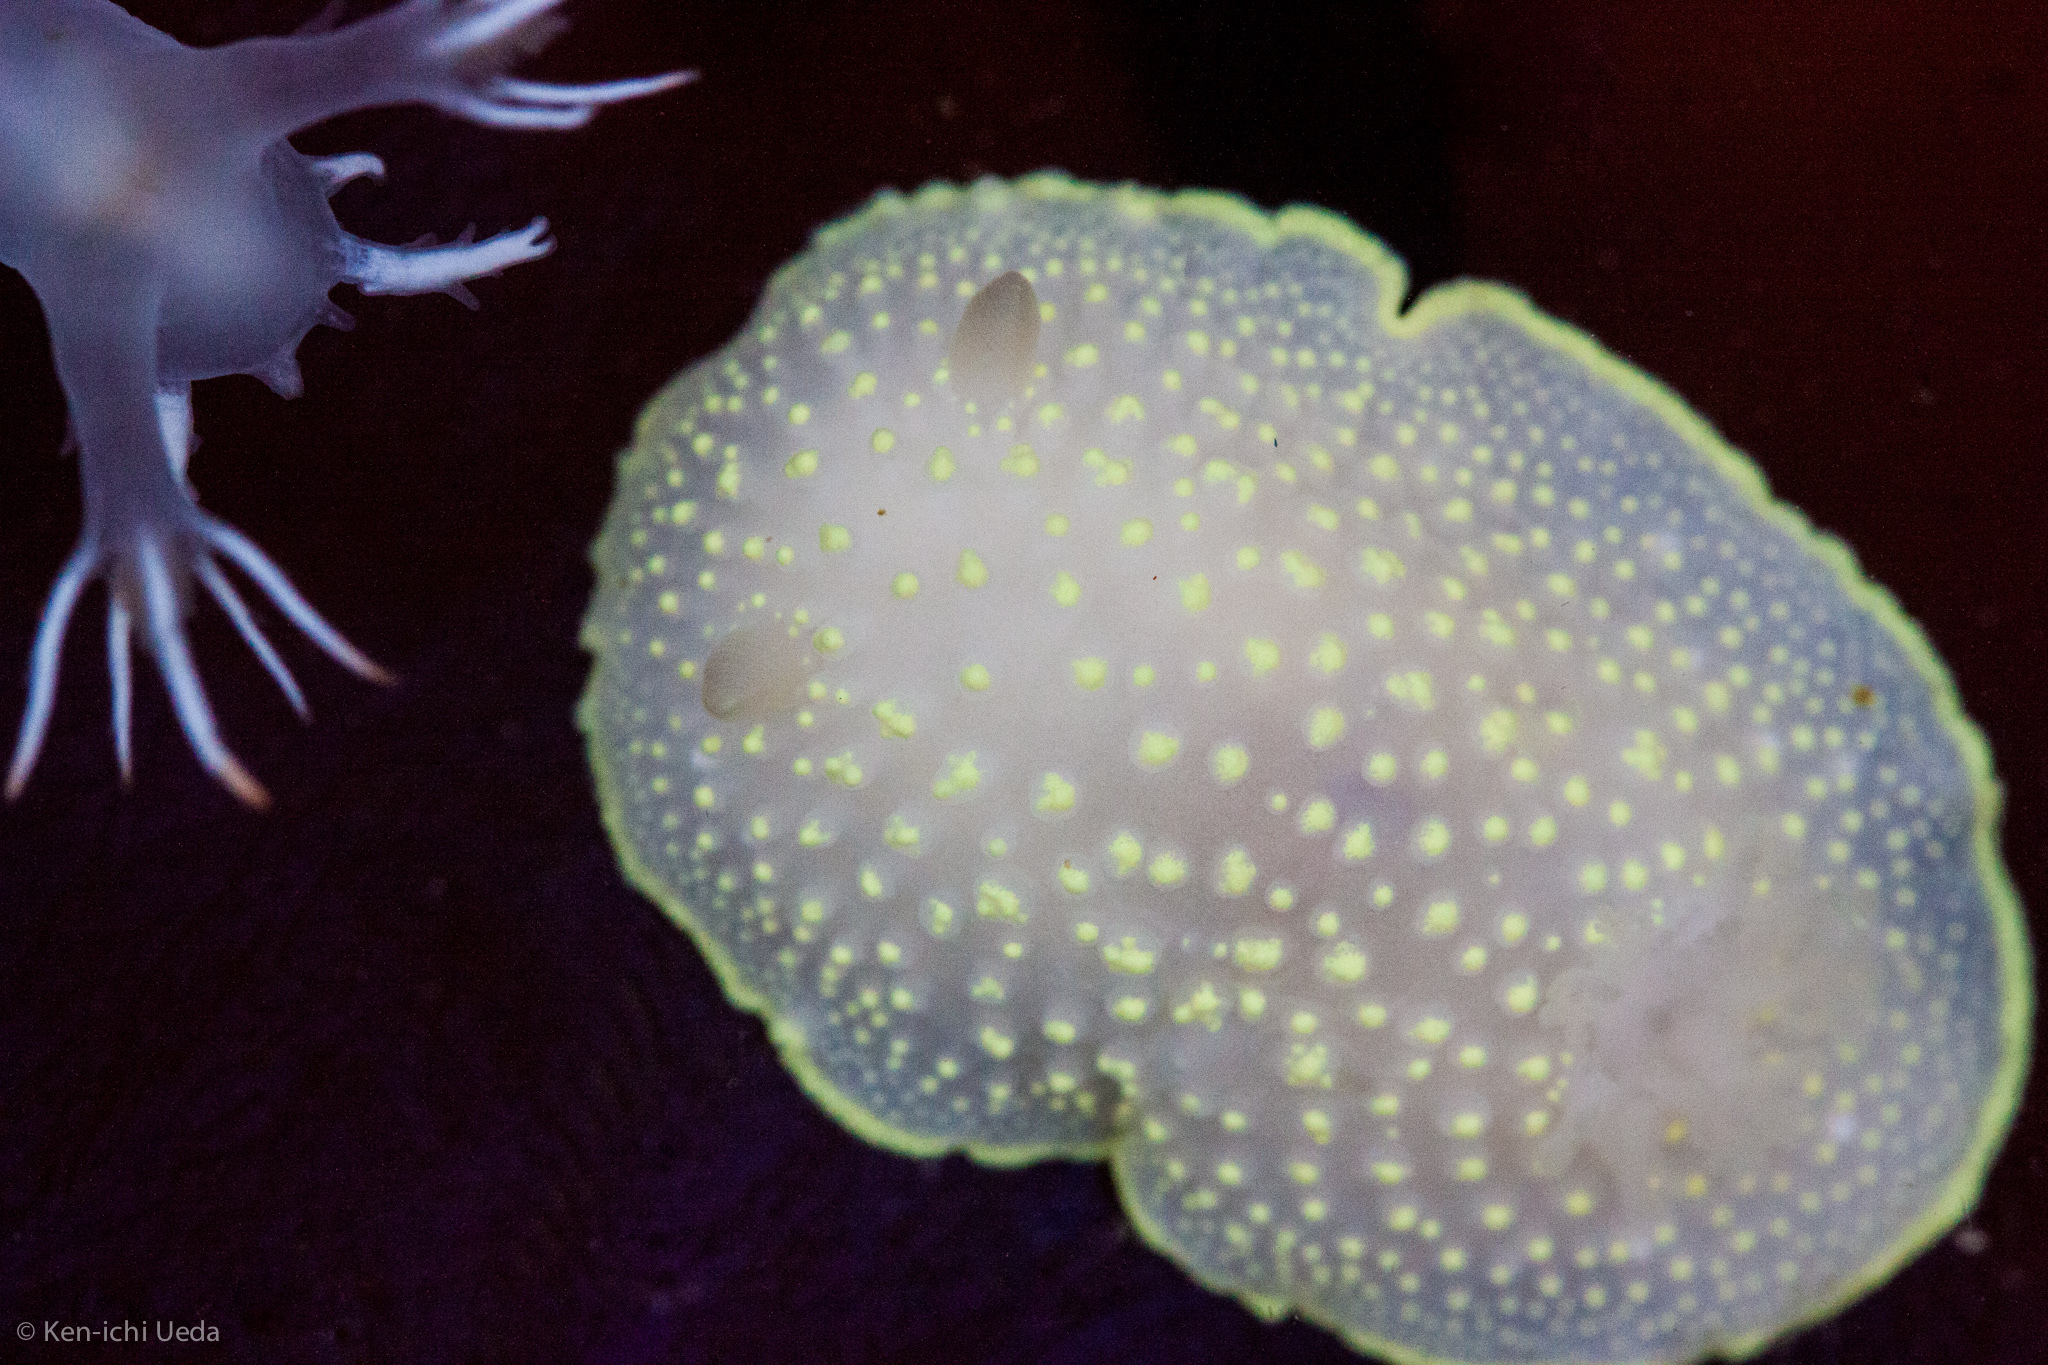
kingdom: Animalia
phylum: Mollusca
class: Gastropoda
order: Nudibranchia
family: Cadlinidae
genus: Cadlina
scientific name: Cadlina luteomarginata
